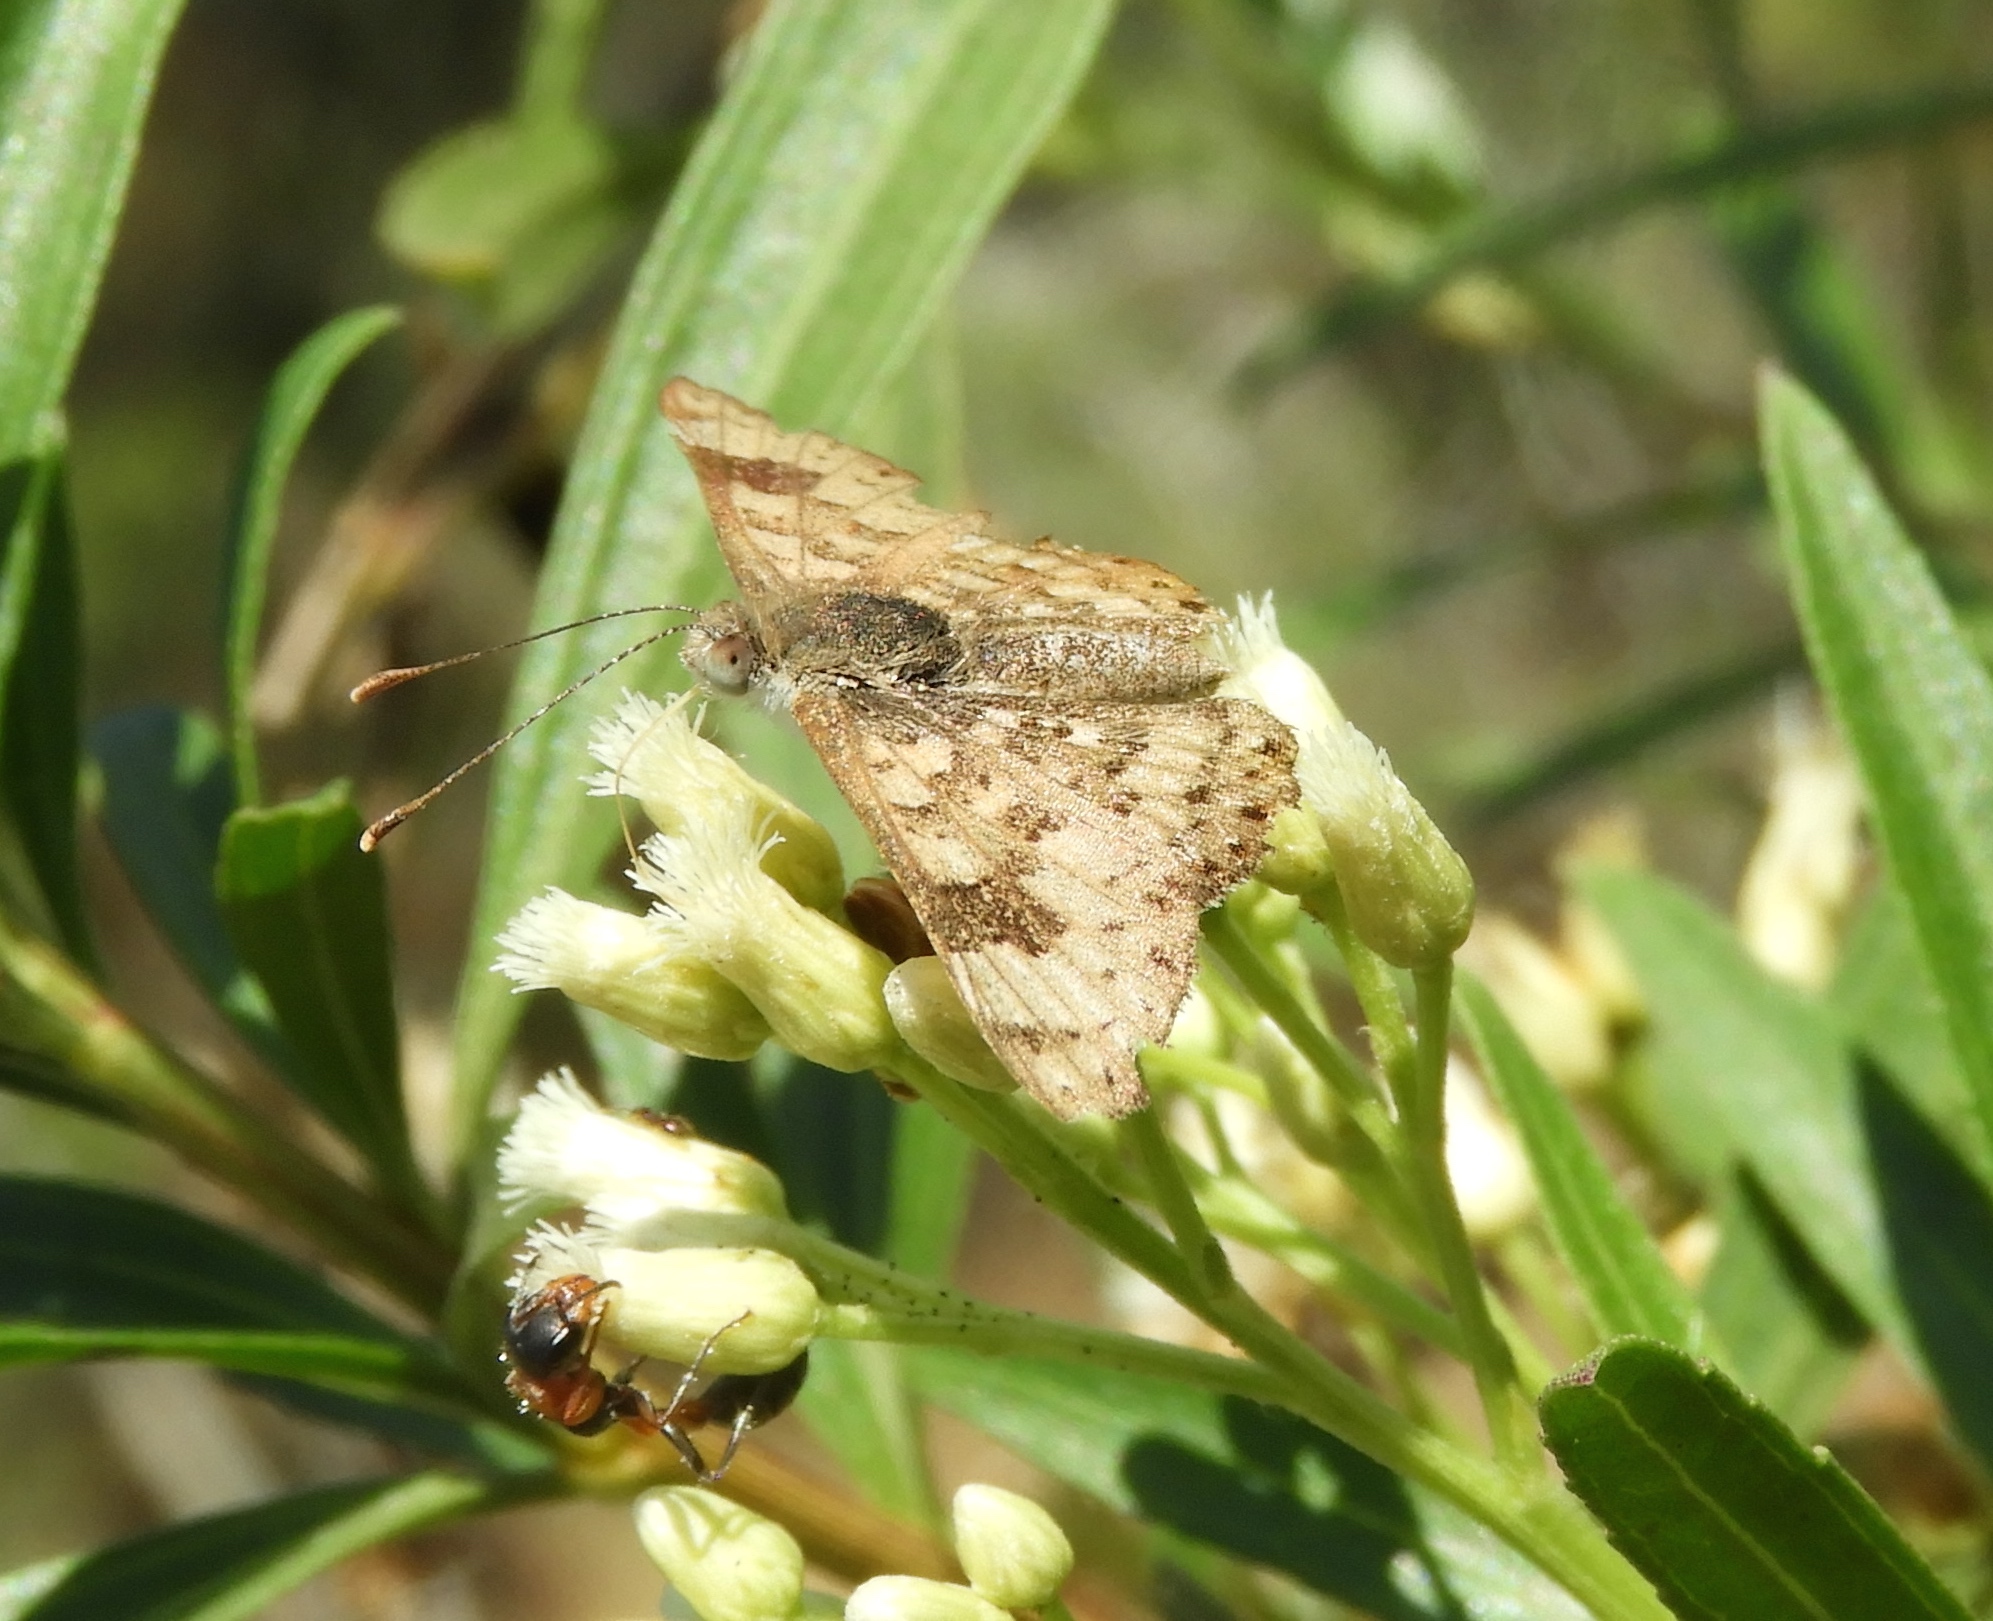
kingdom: Animalia
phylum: Arthropoda
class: Insecta
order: Lepidoptera
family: Lycaenidae
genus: Emesis
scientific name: Emesis
